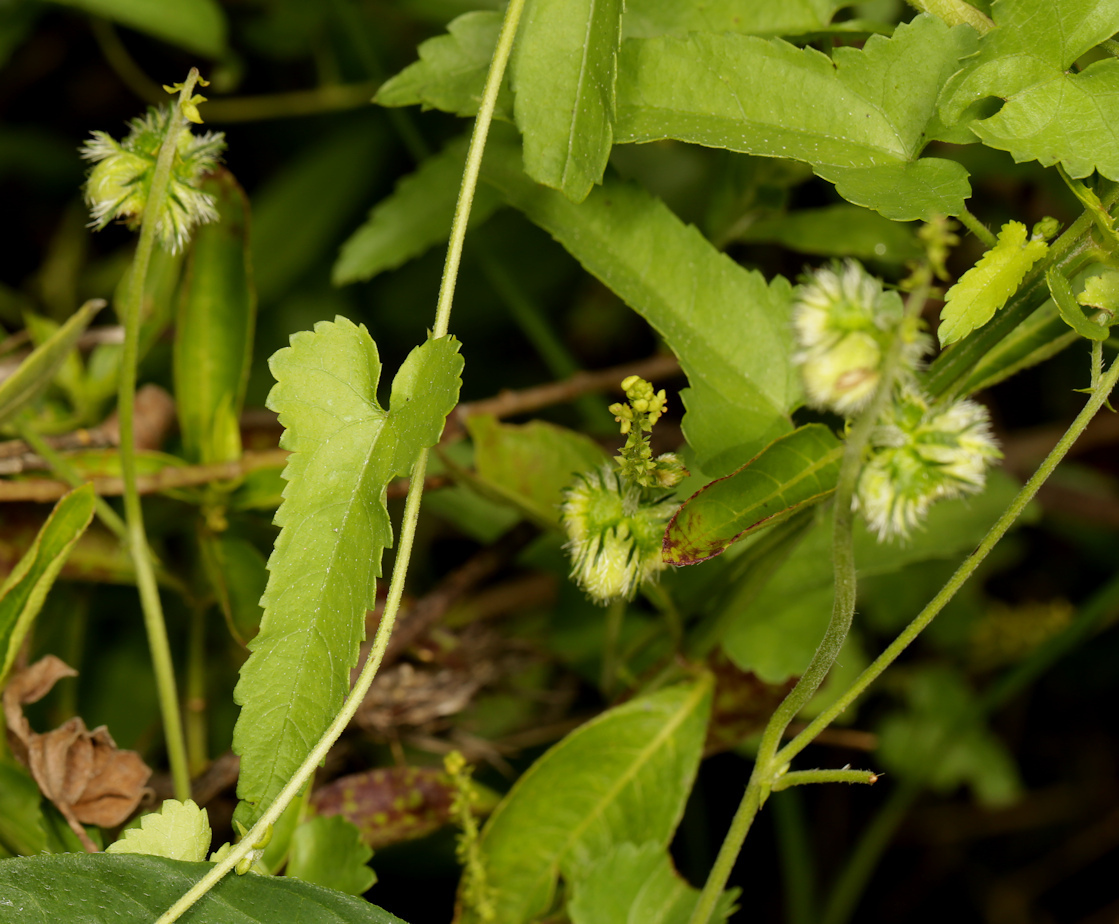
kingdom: Plantae
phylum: Tracheophyta
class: Magnoliopsida
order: Malpighiales
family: Euphorbiaceae
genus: Tragia
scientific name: Tragia dioica
